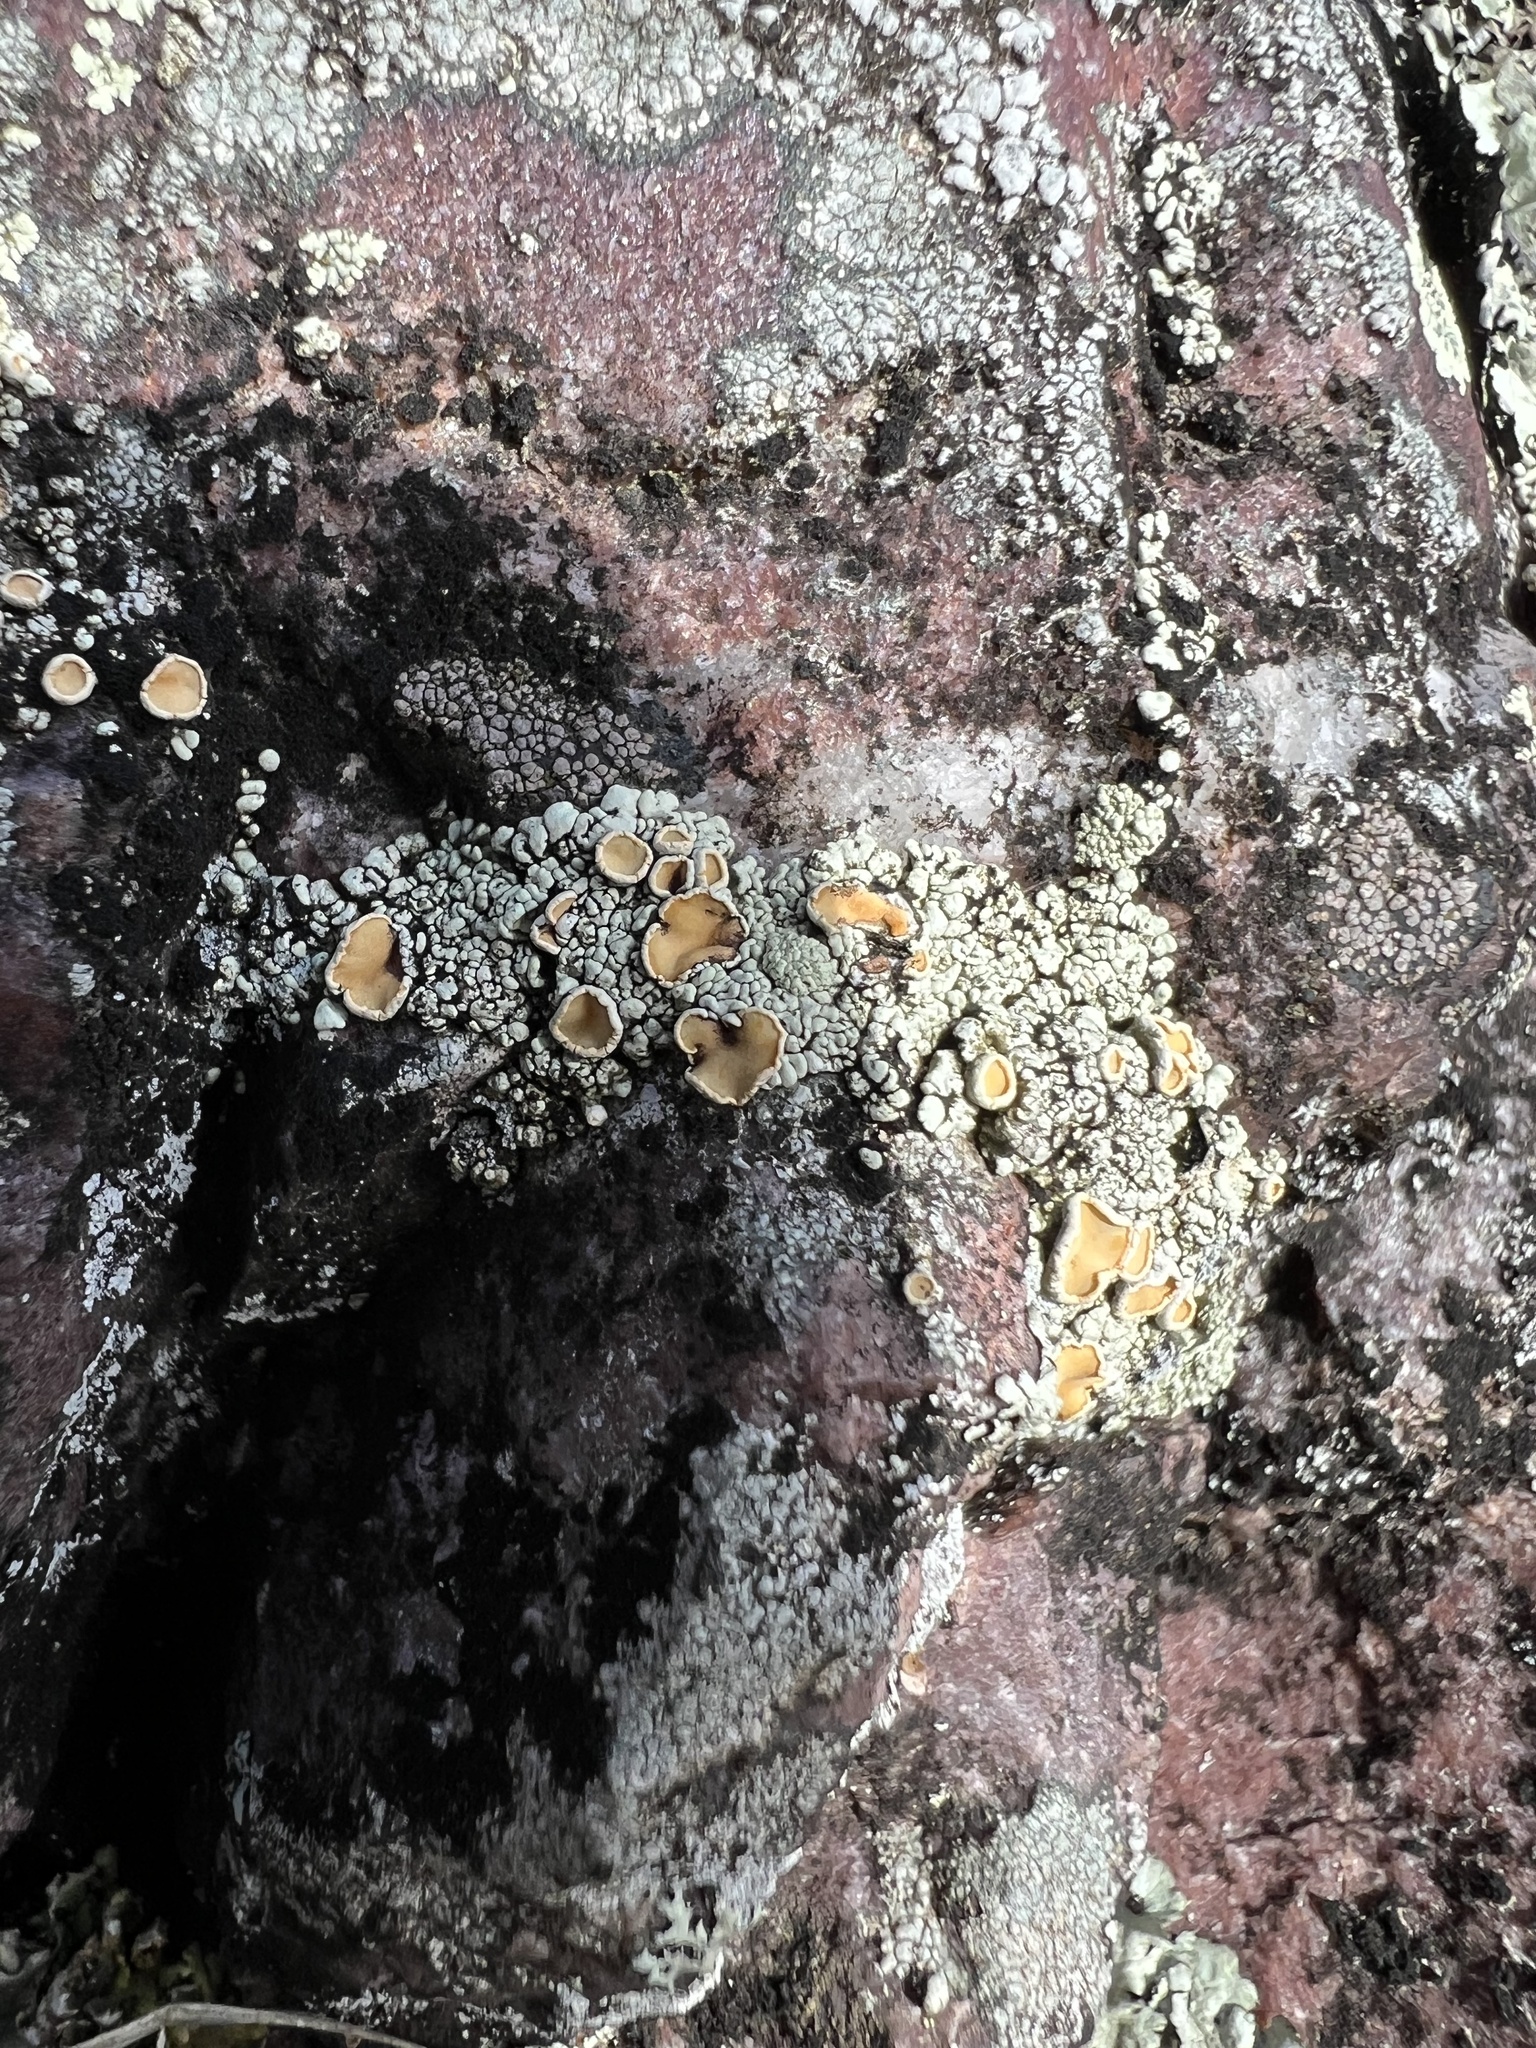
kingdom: Fungi
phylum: Ascomycota
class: Lecanoromycetes
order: Lecanorales
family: Lecanoraceae
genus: Sedelnikovaea
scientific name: Sedelnikovaea subdiscrepans
